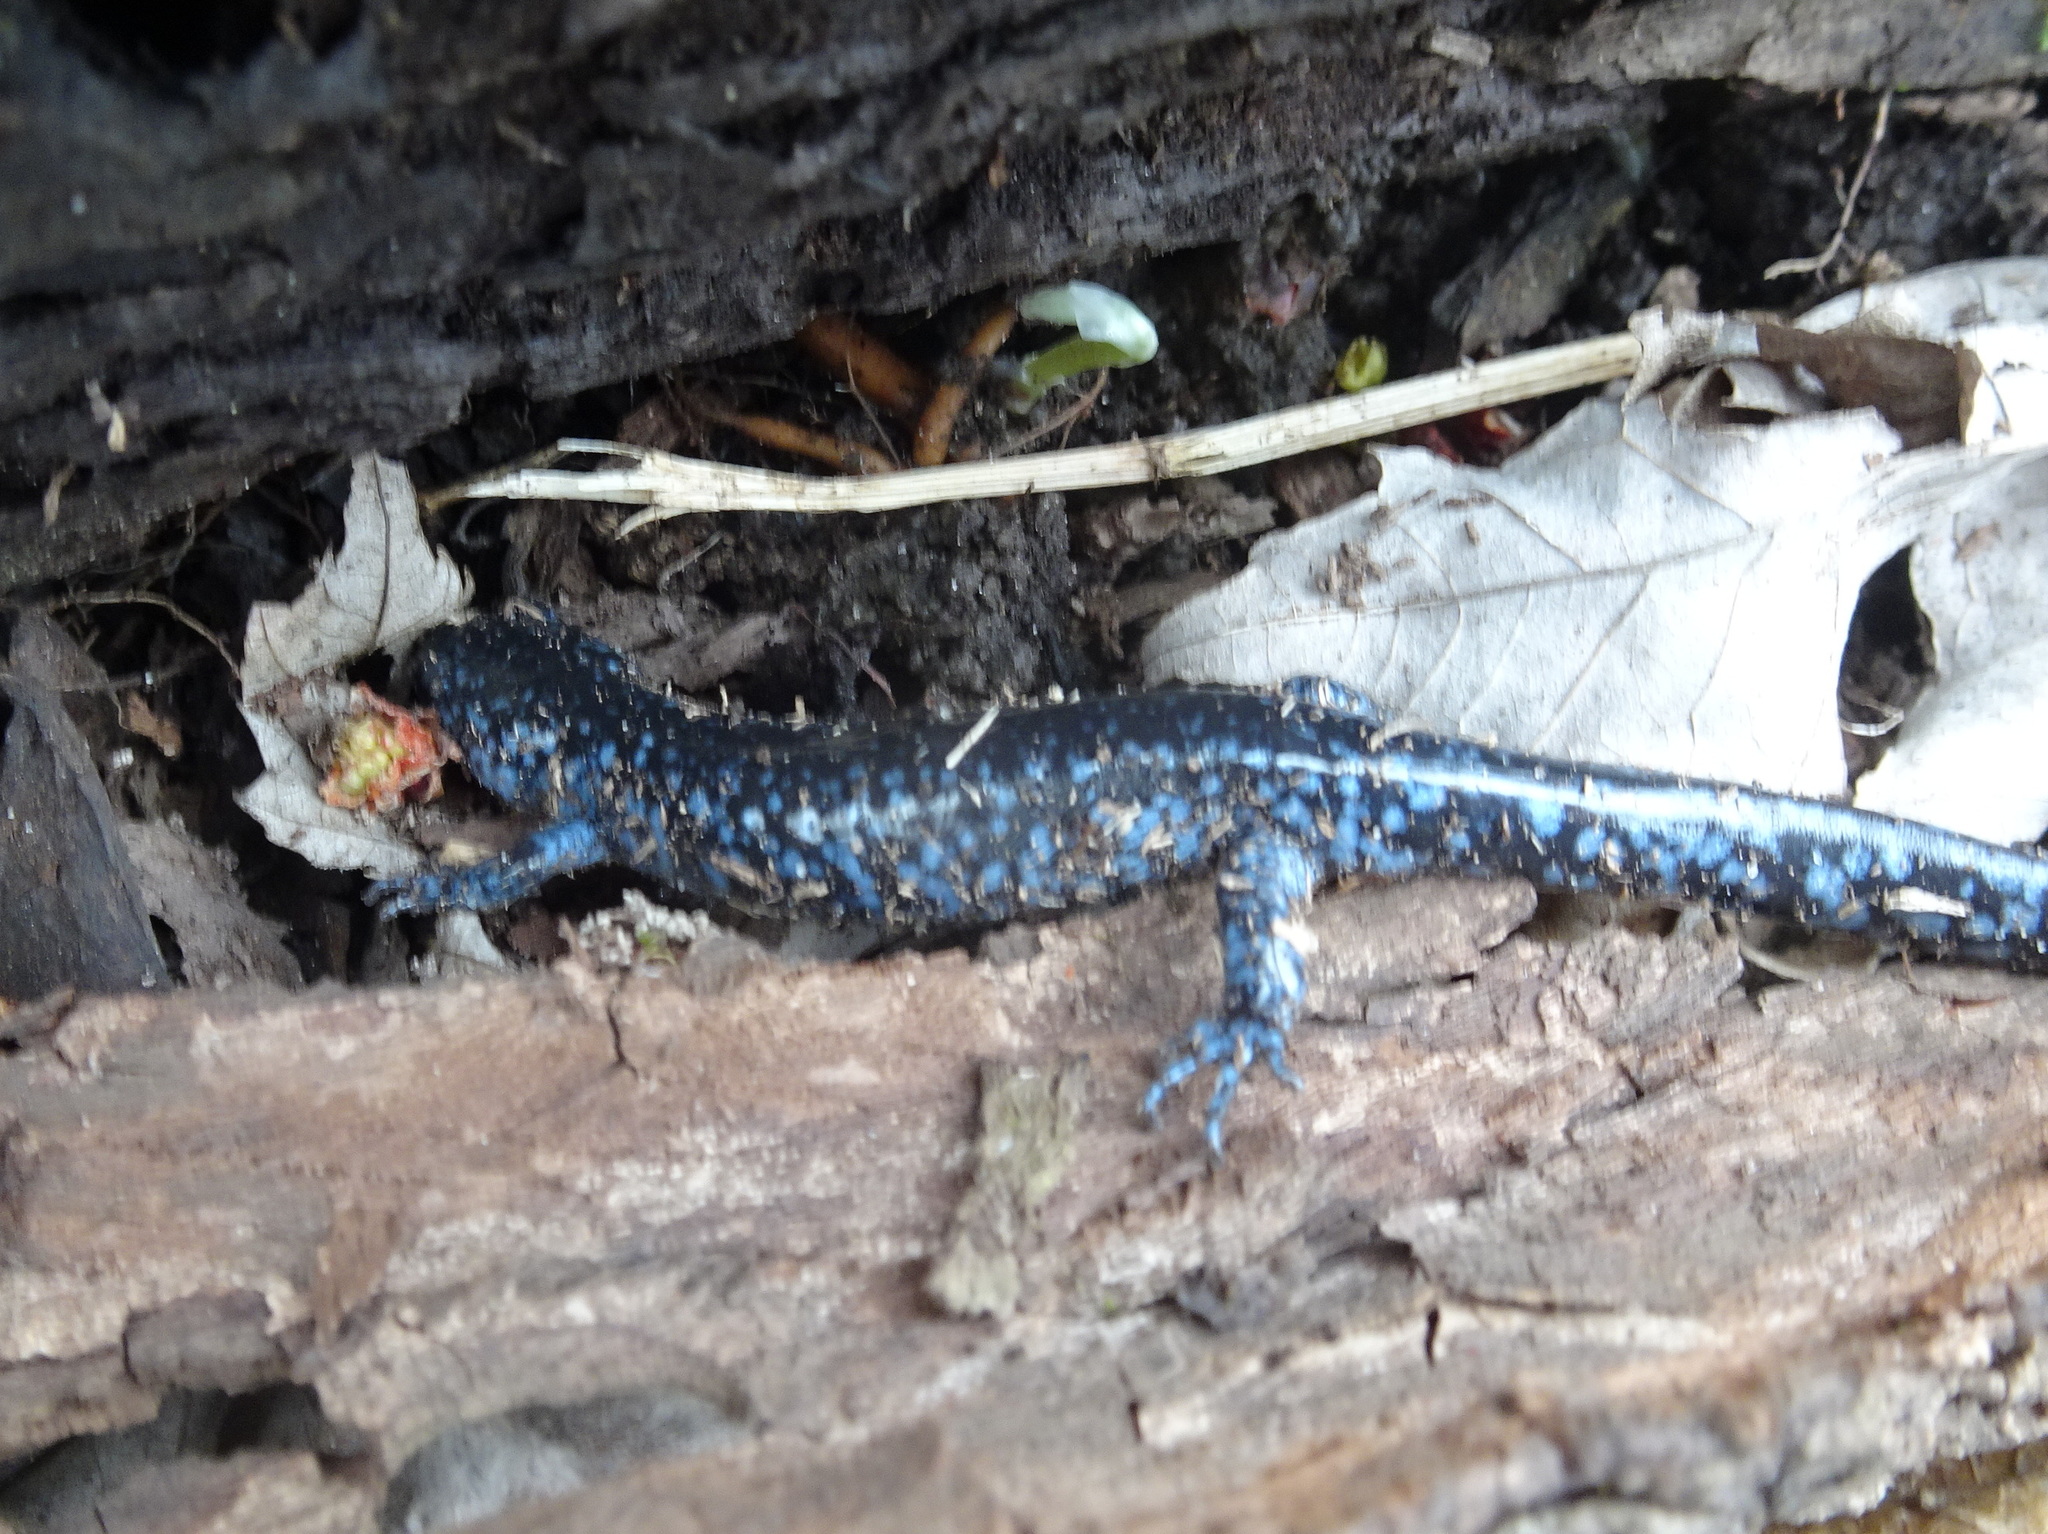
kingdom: Animalia
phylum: Chordata
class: Amphibia
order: Caudata
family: Ambystomatidae
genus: Ambystoma
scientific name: Ambystoma laterale
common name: Blue-spotted salamander
